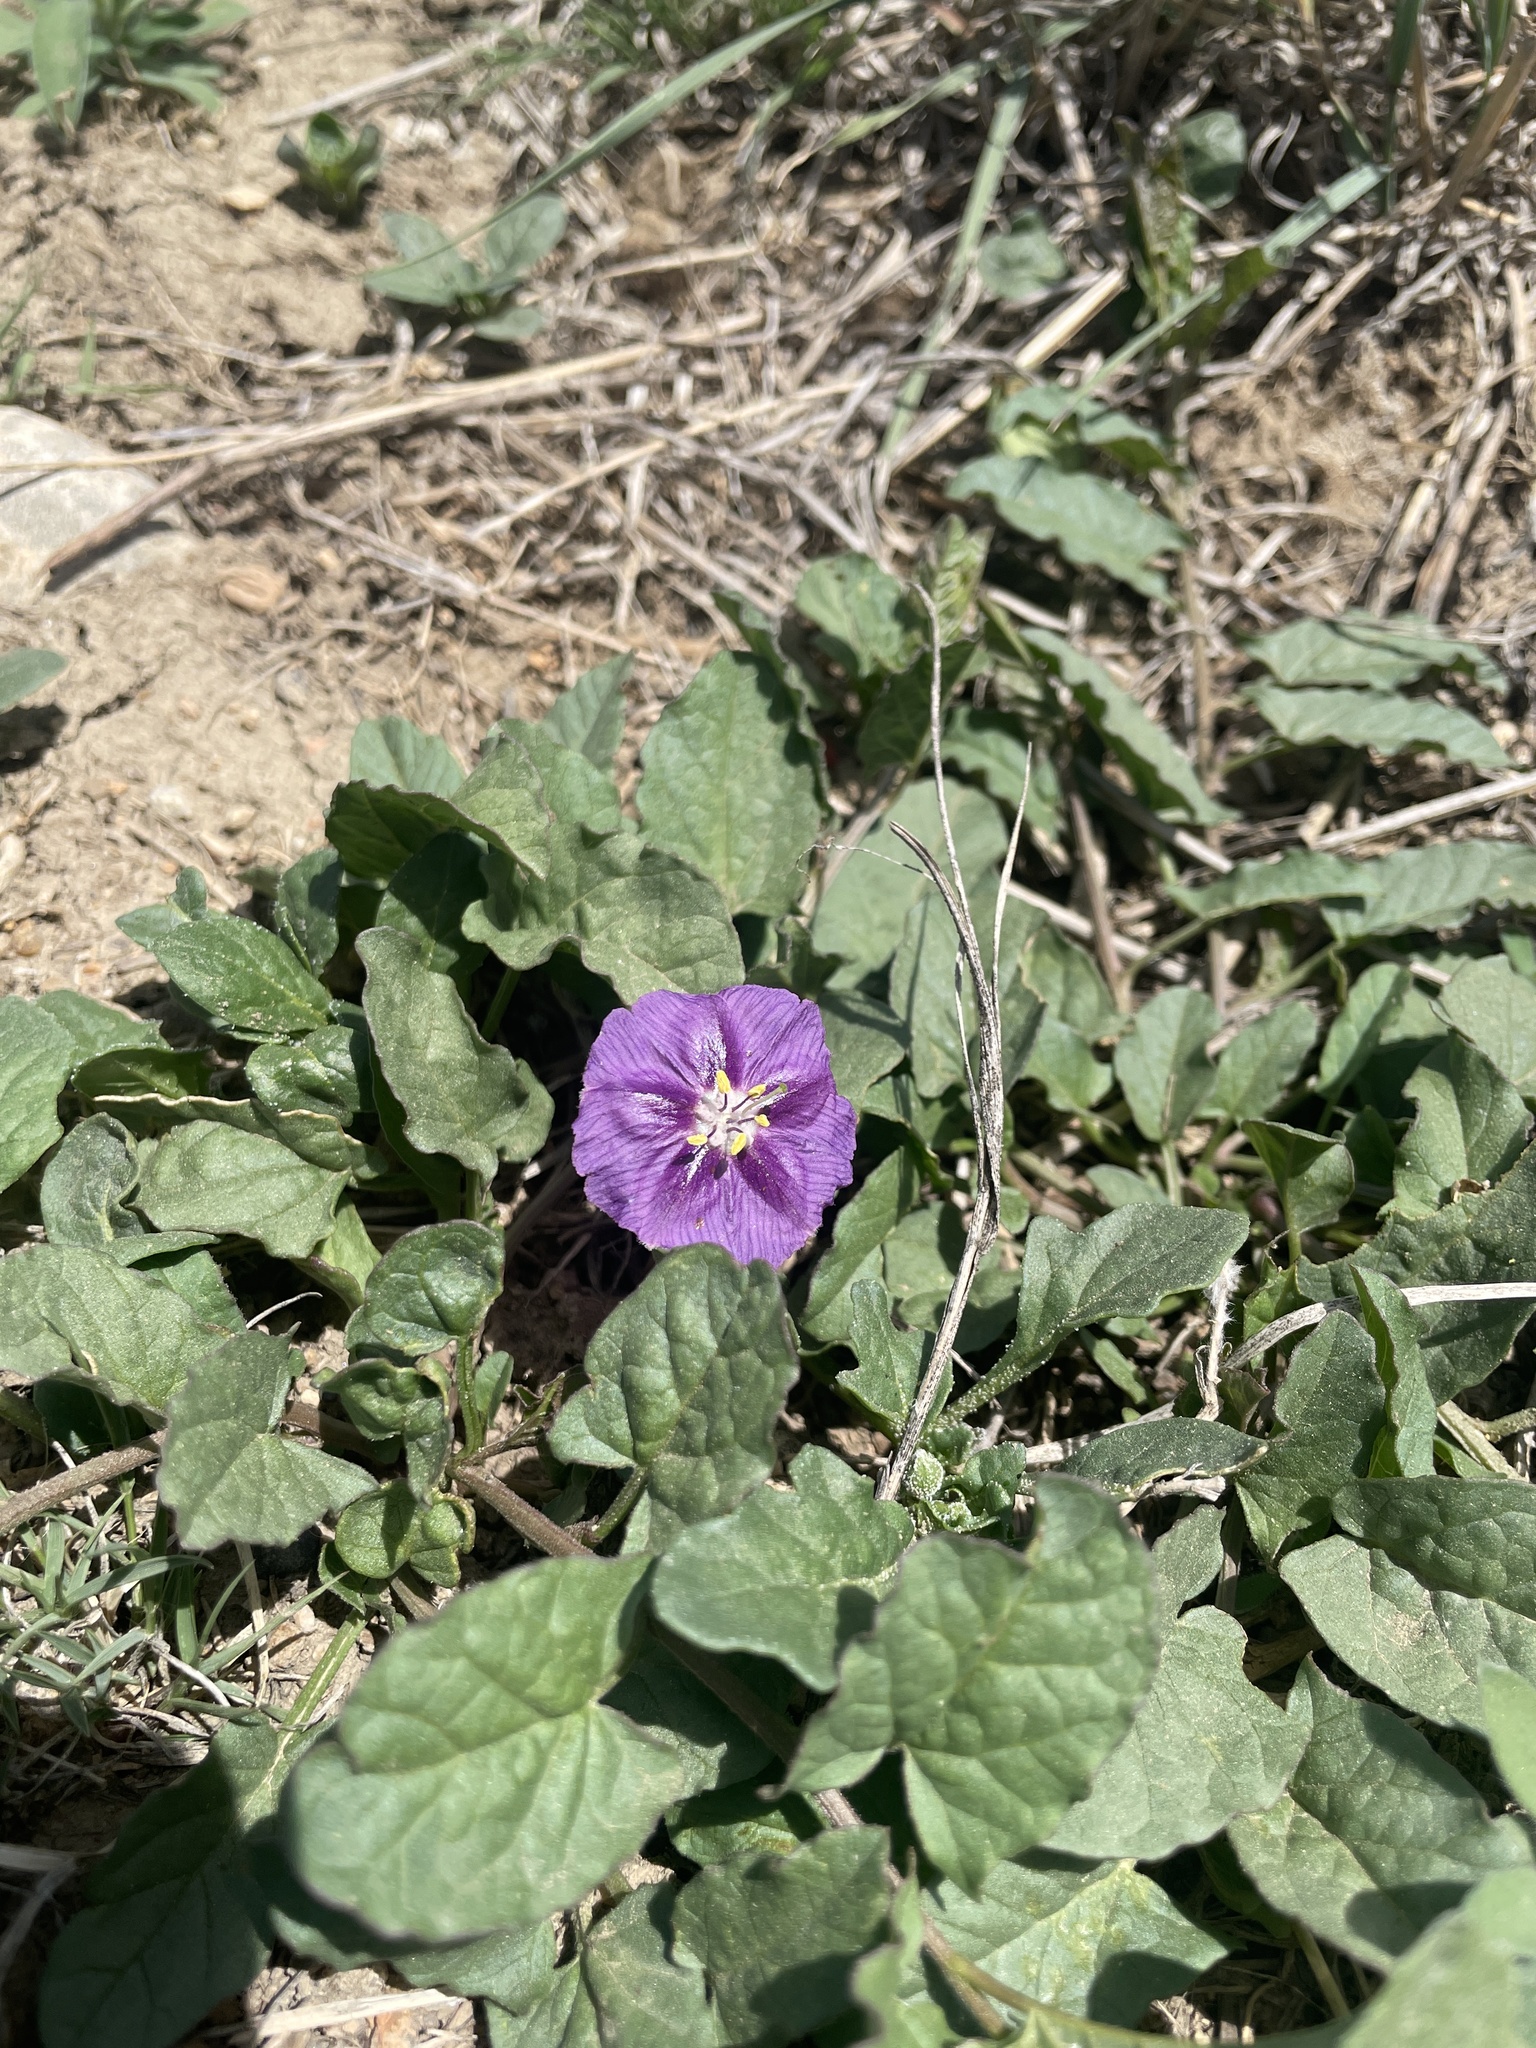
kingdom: Plantae
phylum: Tracheophyta
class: Magnoliopsida
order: Solanales
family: Solanaceae
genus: Quincula
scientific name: Quincula lobata
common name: Purple-ground-cherry
